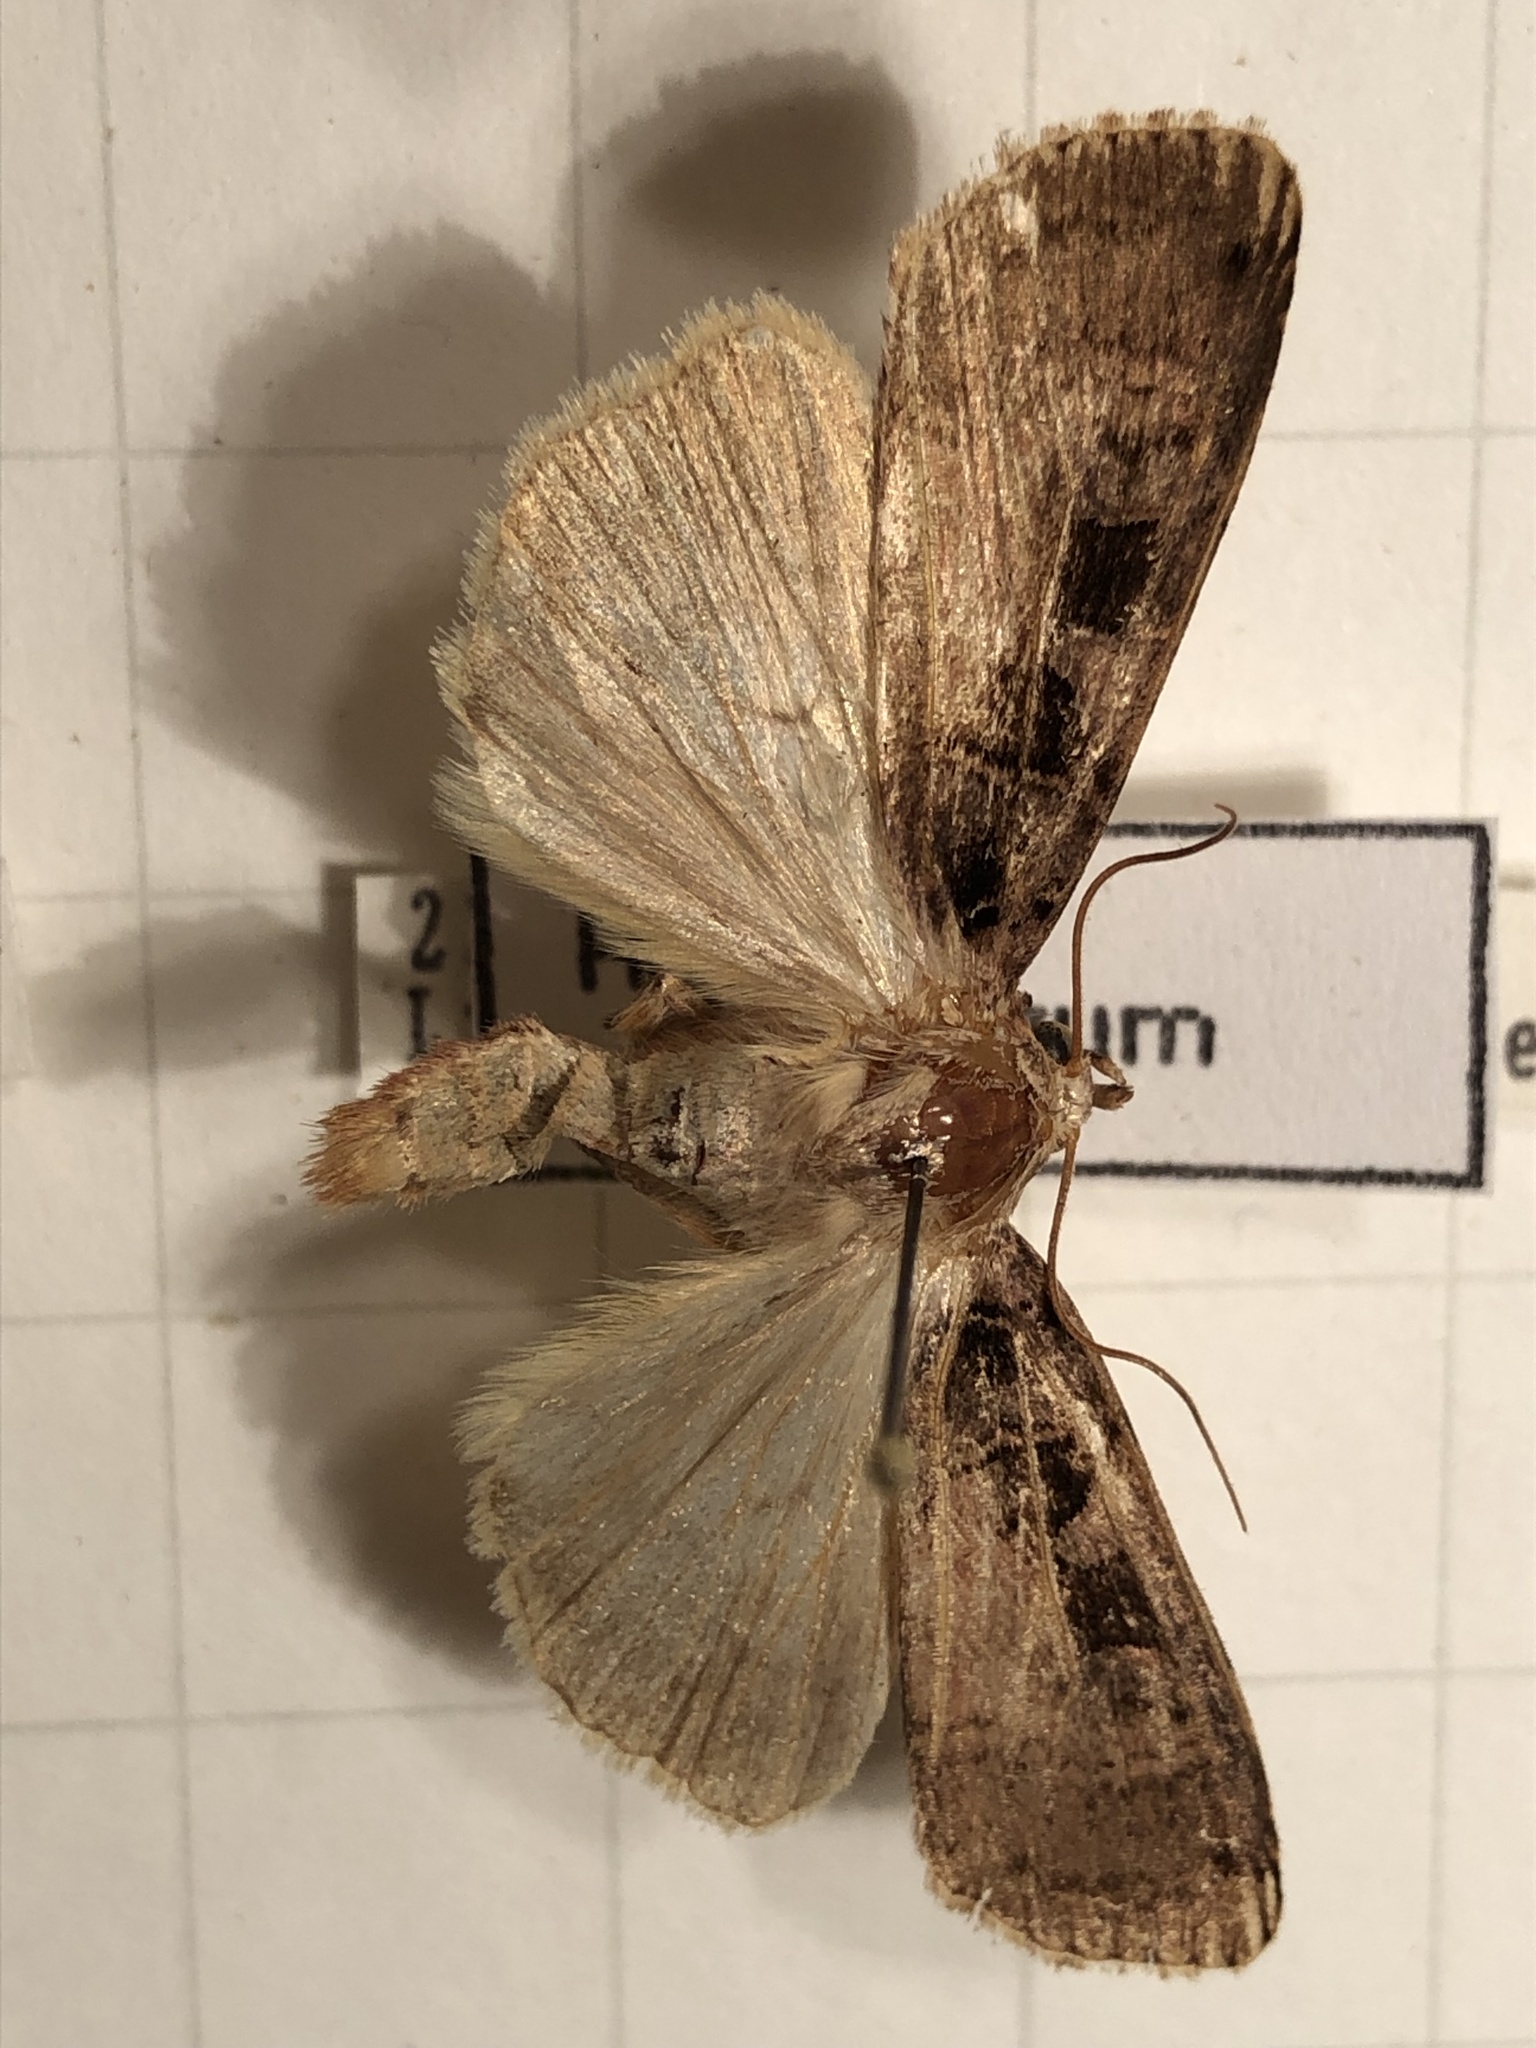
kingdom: Animalia
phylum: Arthropoda
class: Insecta
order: Lepidoptera
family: Noctuidae
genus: Xestia
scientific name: Xestia ditrapezium
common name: Triple-spotted clay
